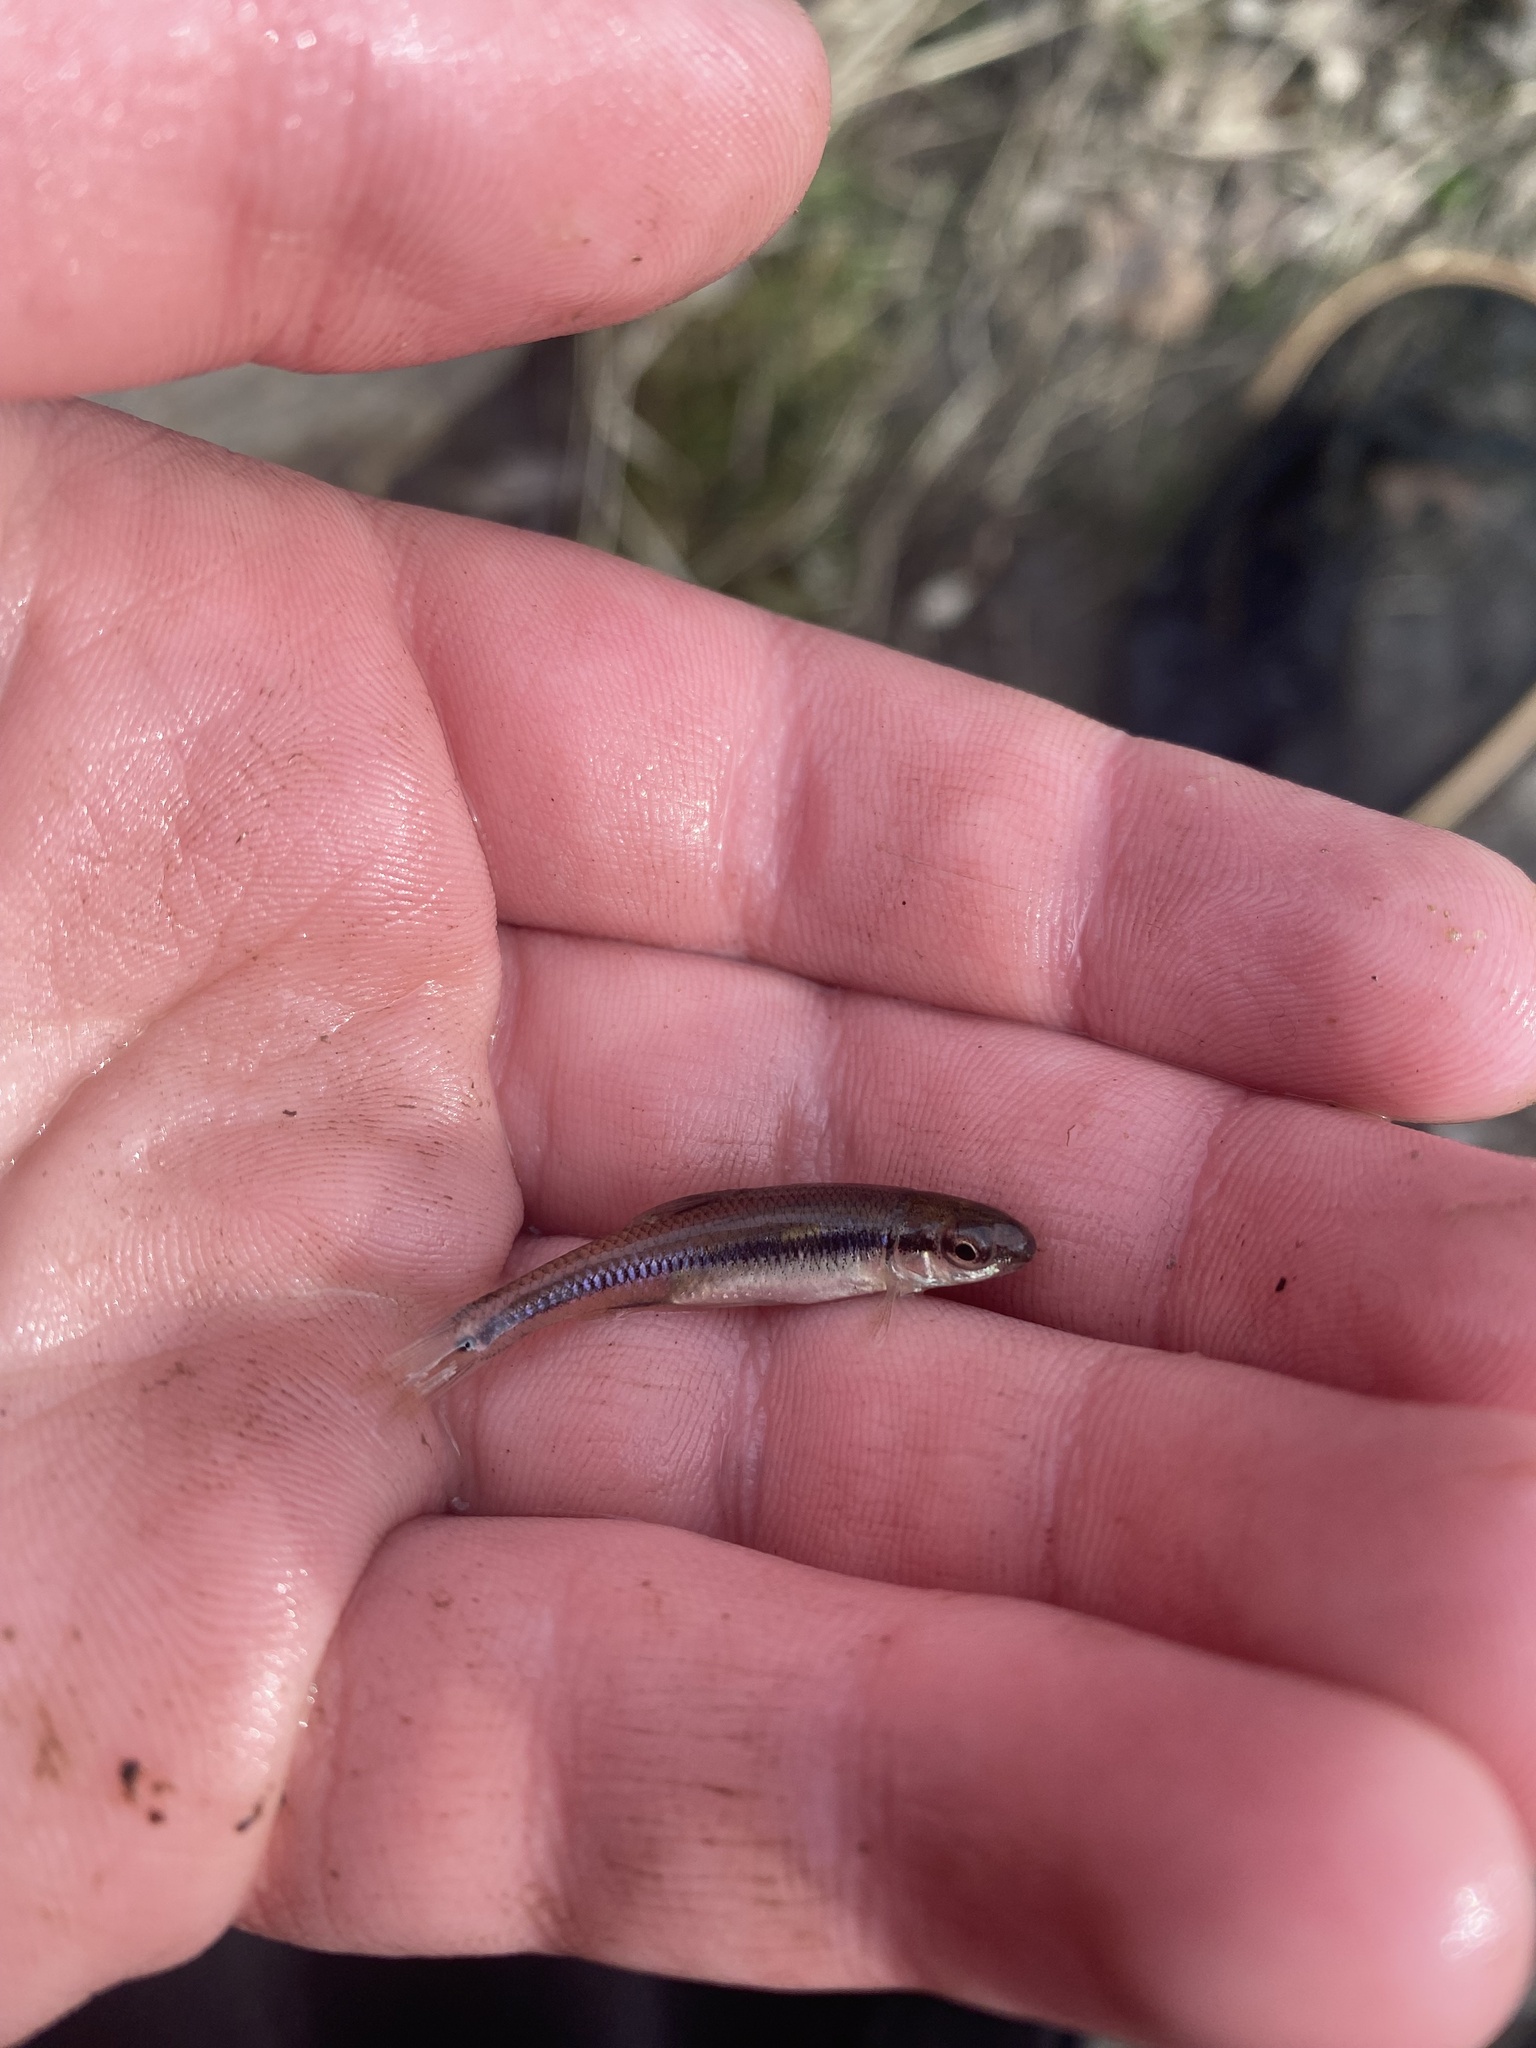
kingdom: Animalia
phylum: Chordata
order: Cypriniformes
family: Cyprinidae
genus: Pimephales
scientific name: Pimephales notatus
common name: Bluntnose minnow
